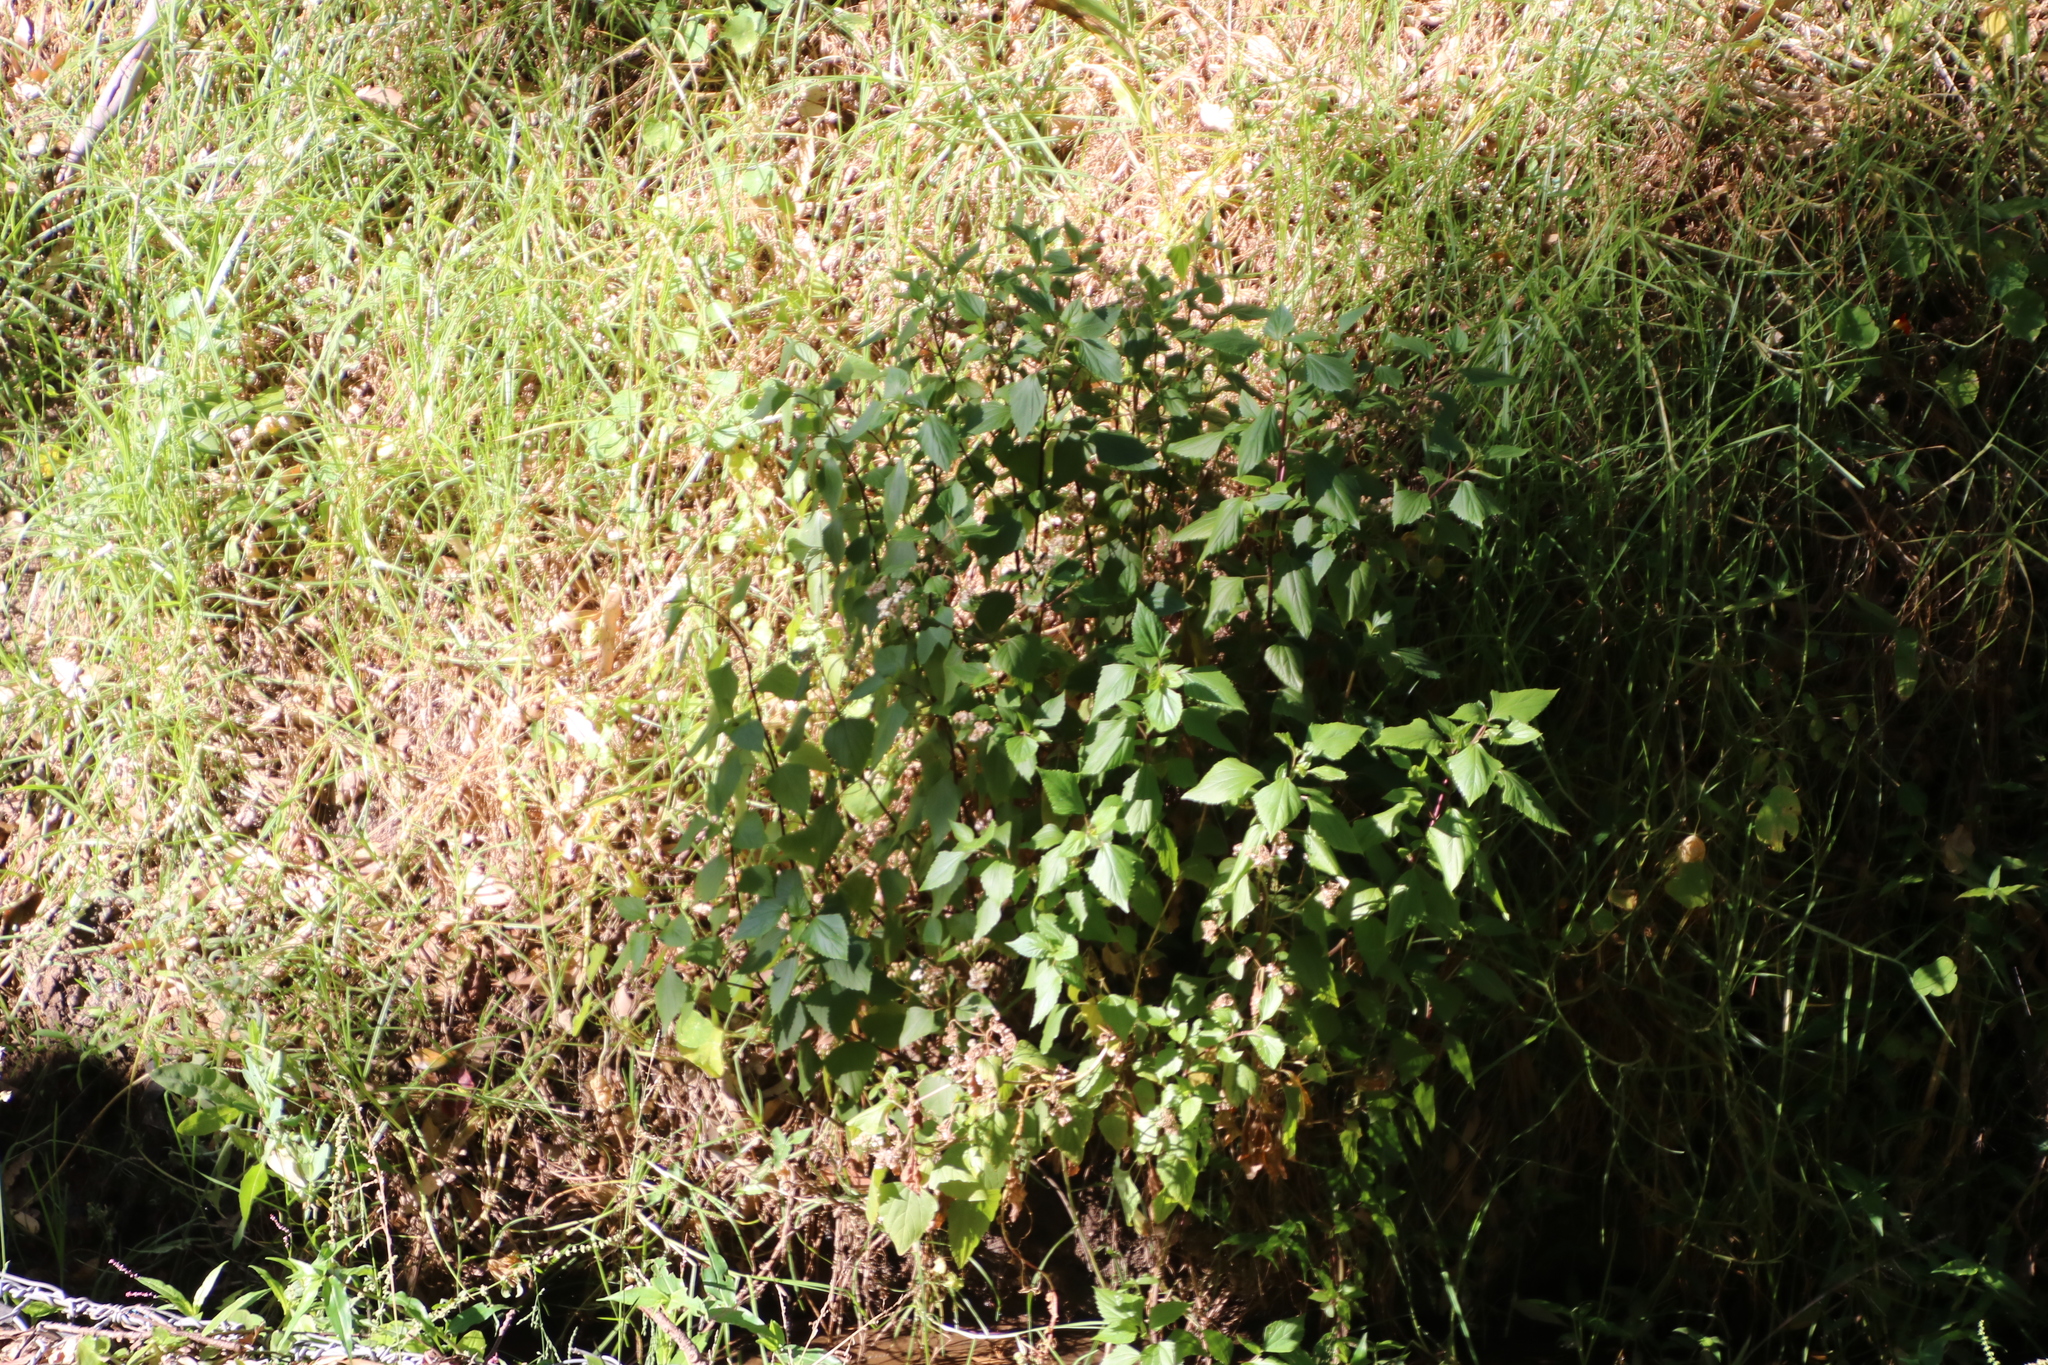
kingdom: Plantae
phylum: Tracheophyta
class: Magnoliopsida
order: Asterales
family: Asteraceae
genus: Ageratina
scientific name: Ageratina adenophora
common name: Sticky snakeroot
